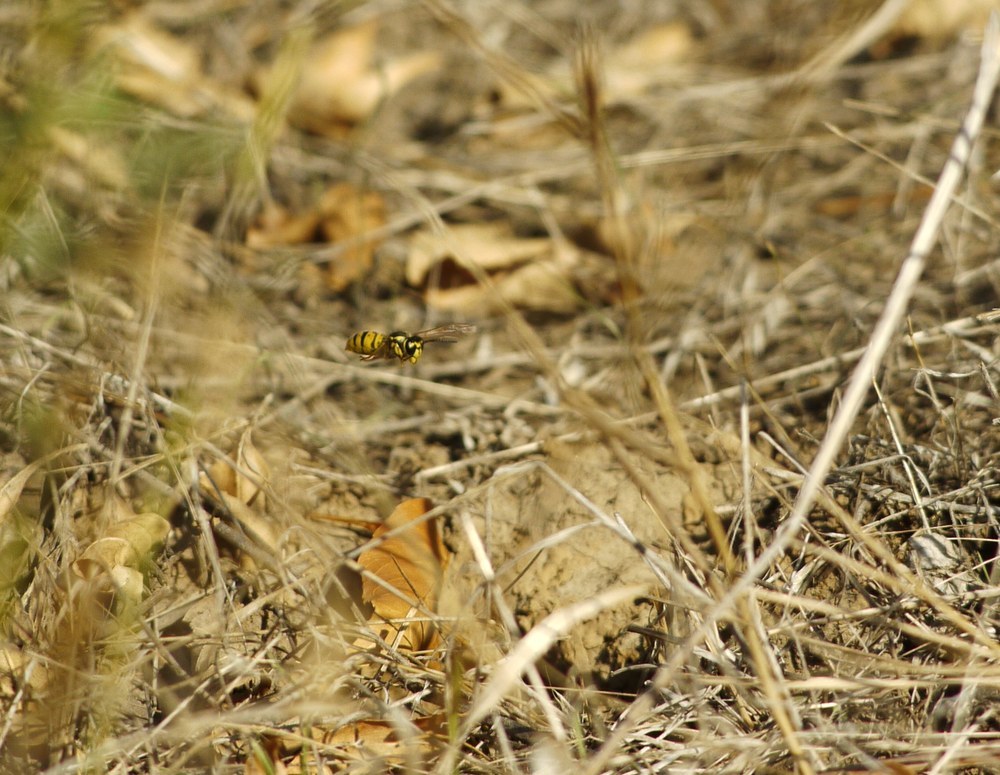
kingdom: Animalia
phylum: Arthropoda
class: Insecta
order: Hymenoptera
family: Vespidae
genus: Vespula
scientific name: Vespula germanica
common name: German wasp
